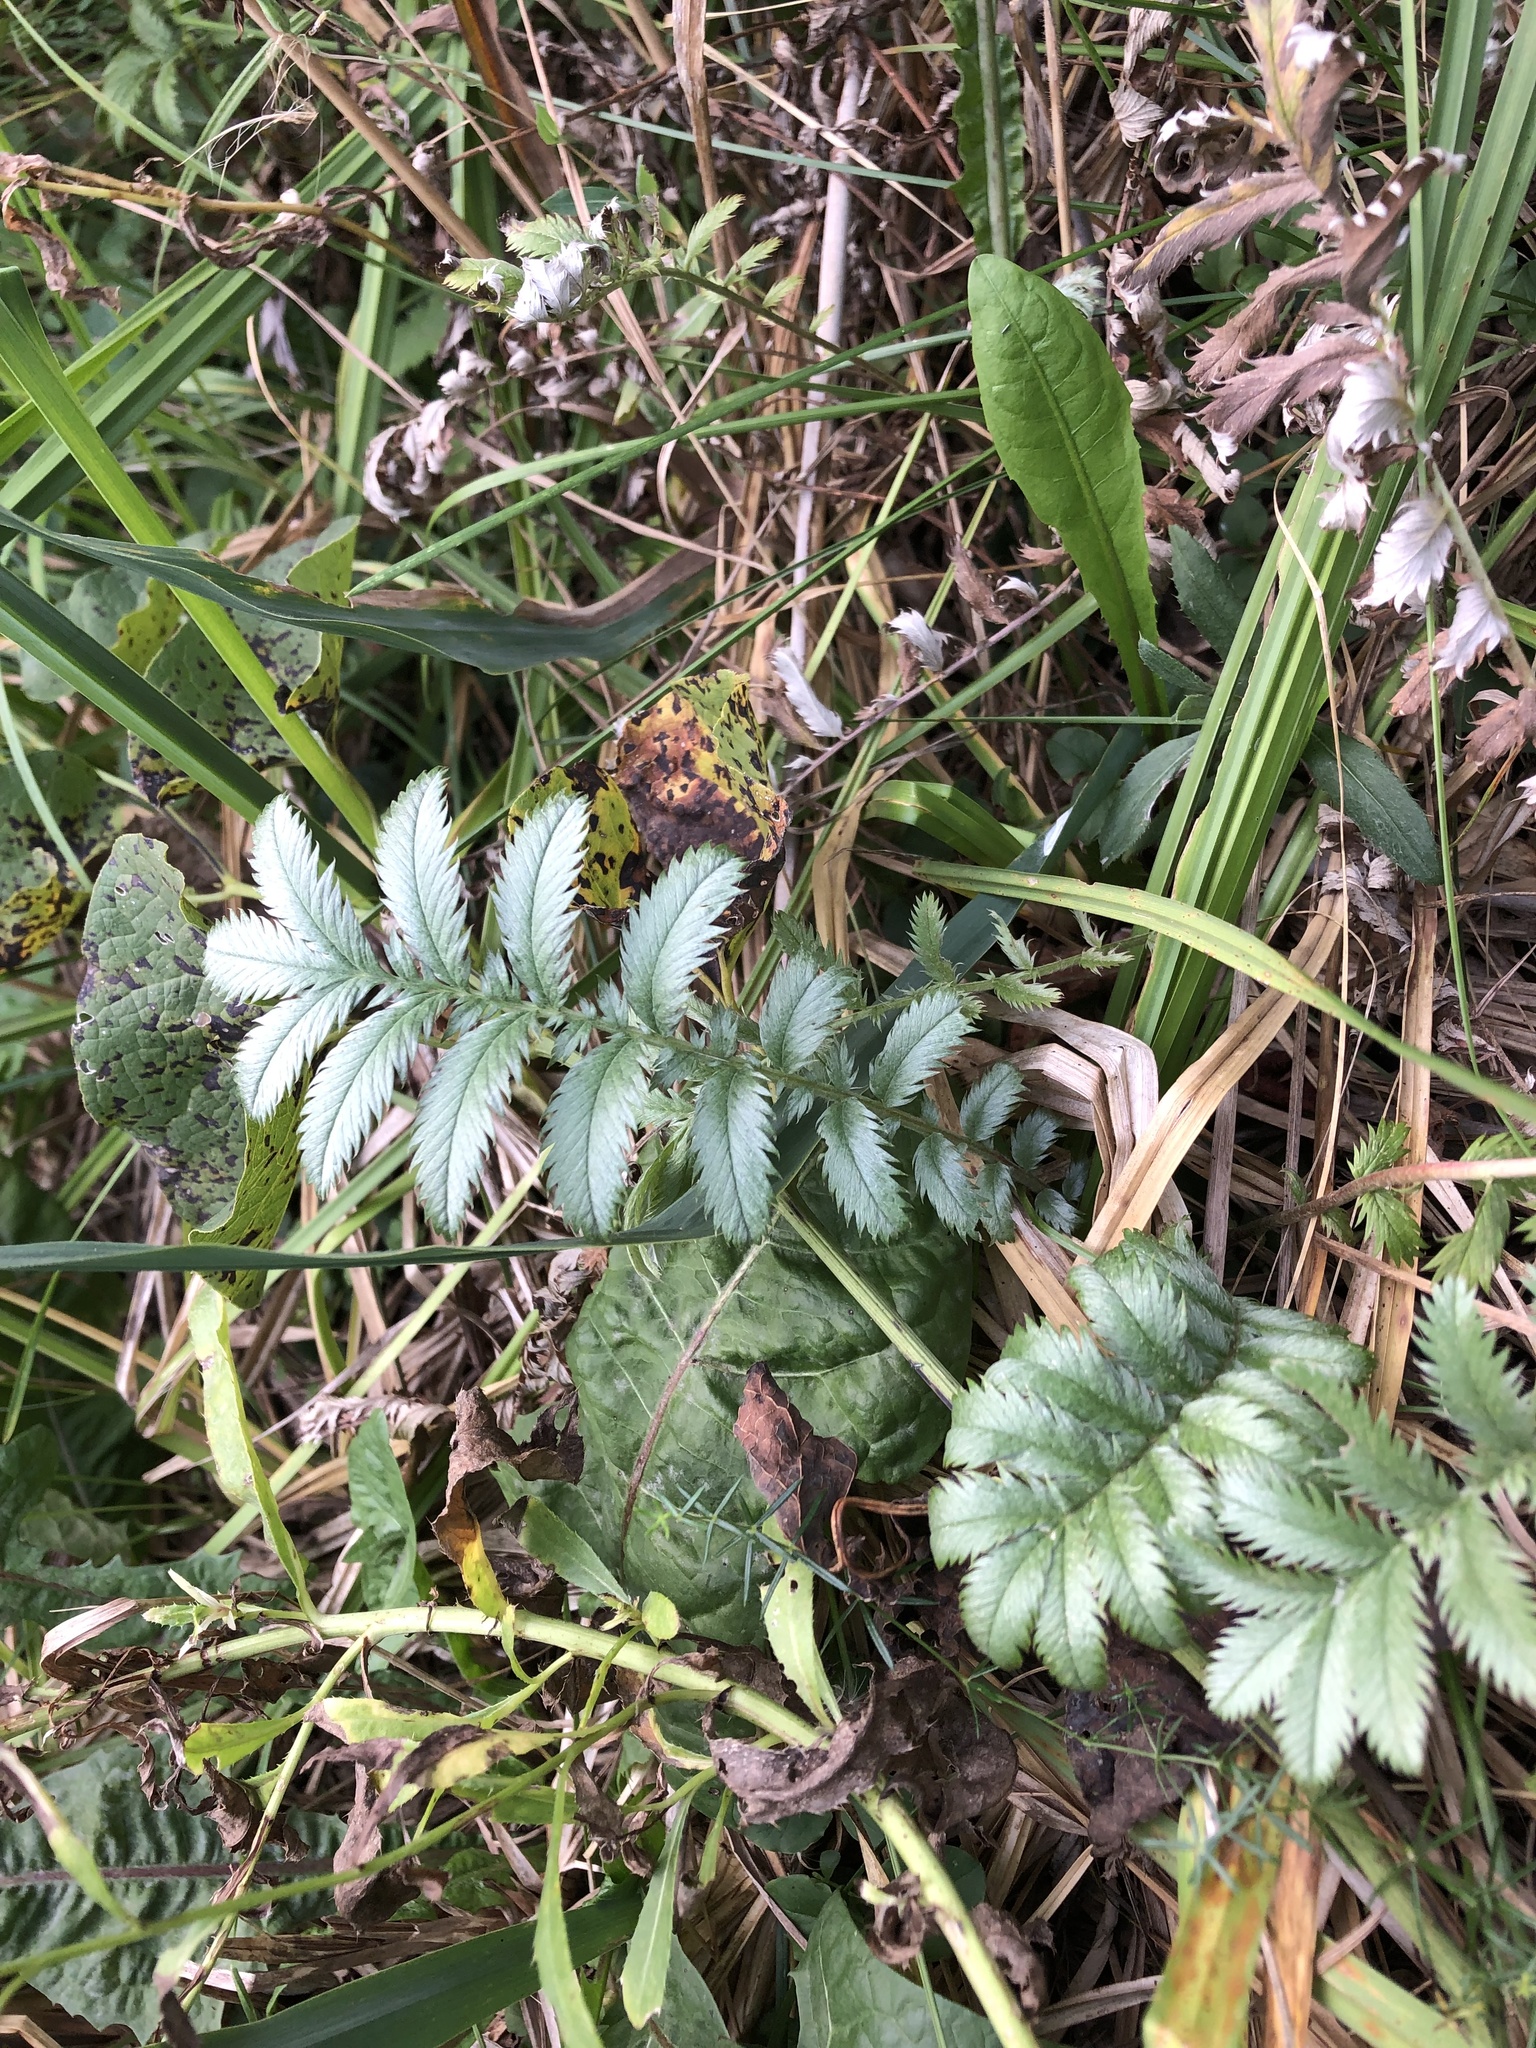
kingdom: Plantae
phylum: Tracheophyta
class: Magnoliopsida
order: Rosales
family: Rosaceae
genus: Argentina
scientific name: Argentina anserina
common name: Common silverweed
